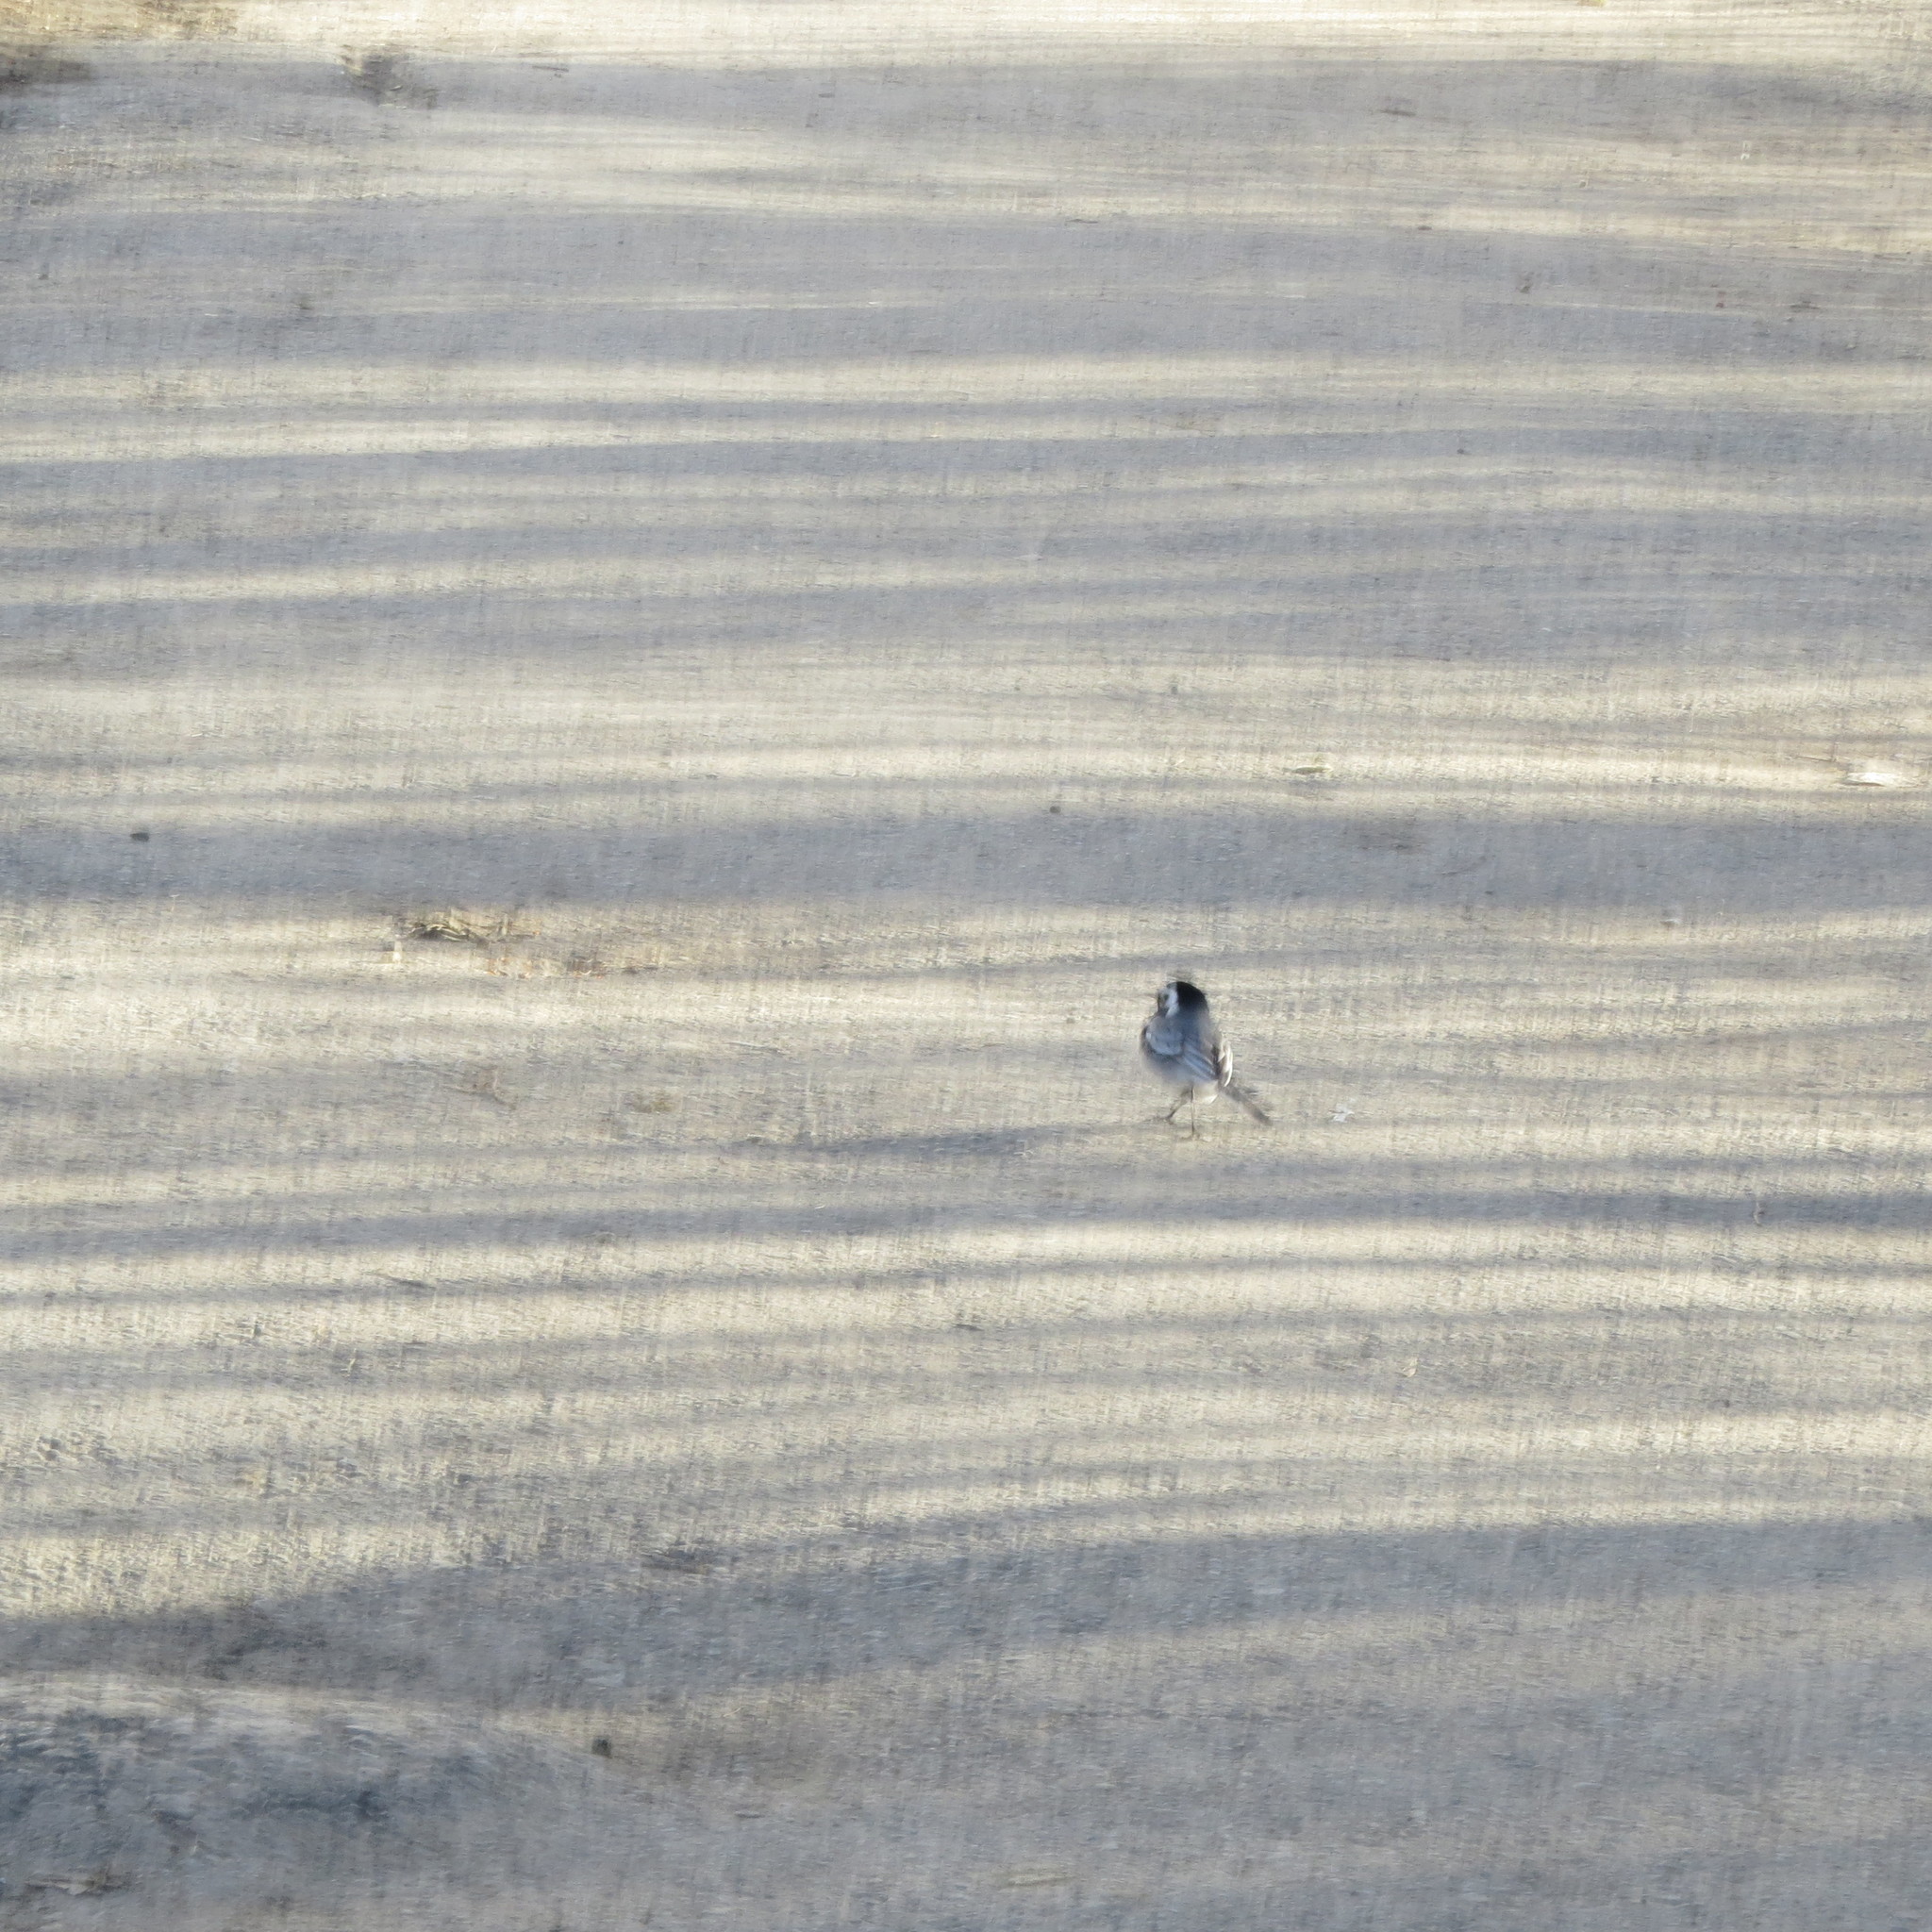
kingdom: Animalia
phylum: Chordata
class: Aves
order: Passeriformes
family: Motacillidae
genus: Motacilla
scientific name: Motacilla alba
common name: White wagtail
